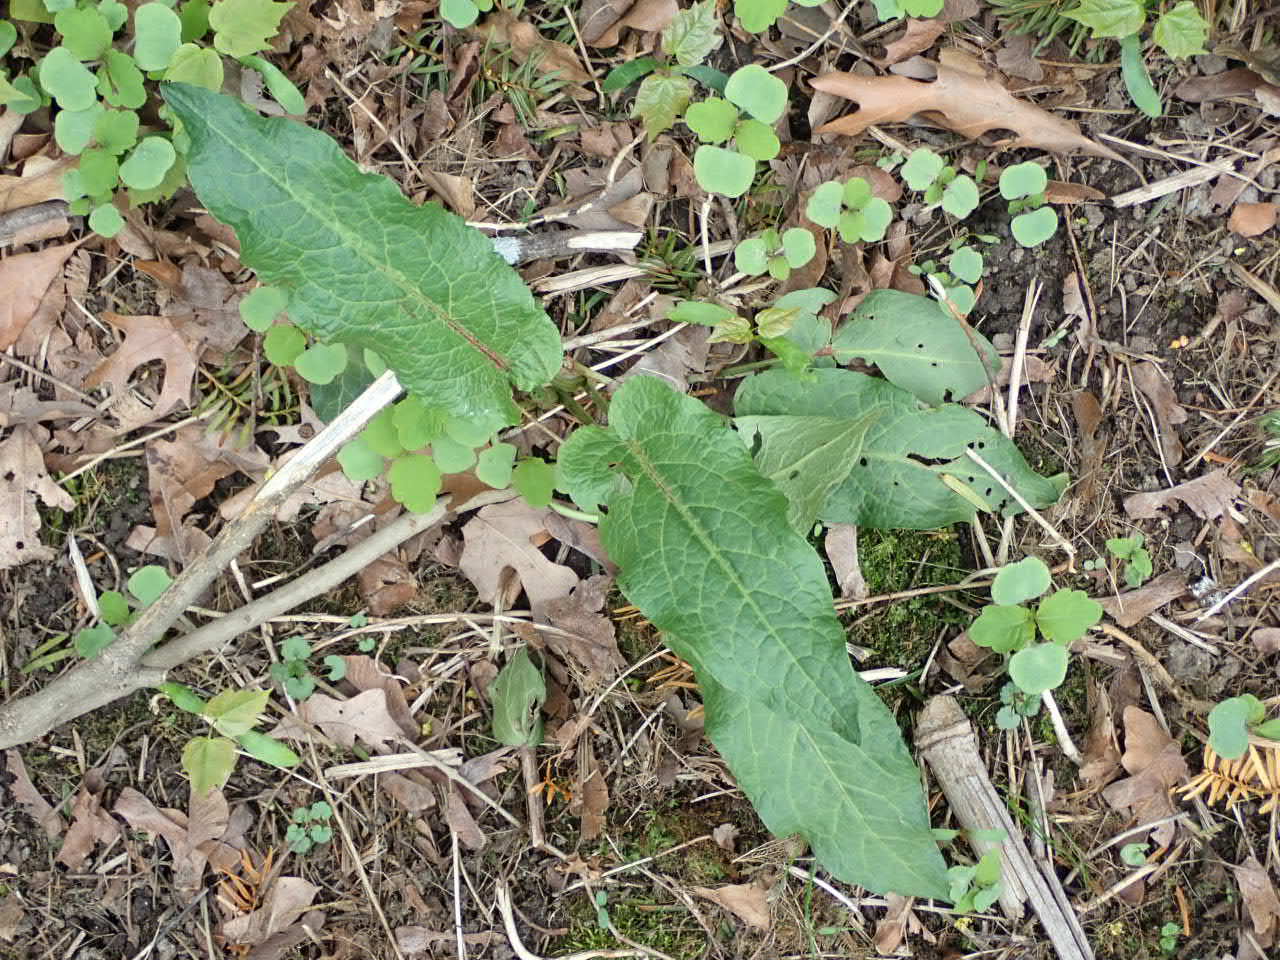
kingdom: Plantae
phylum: Tracheophyta
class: Magnoliopsida
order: Caryophyllales
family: Polygonaceae
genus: Rumex
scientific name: Rumex crispus
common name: Curled dock
